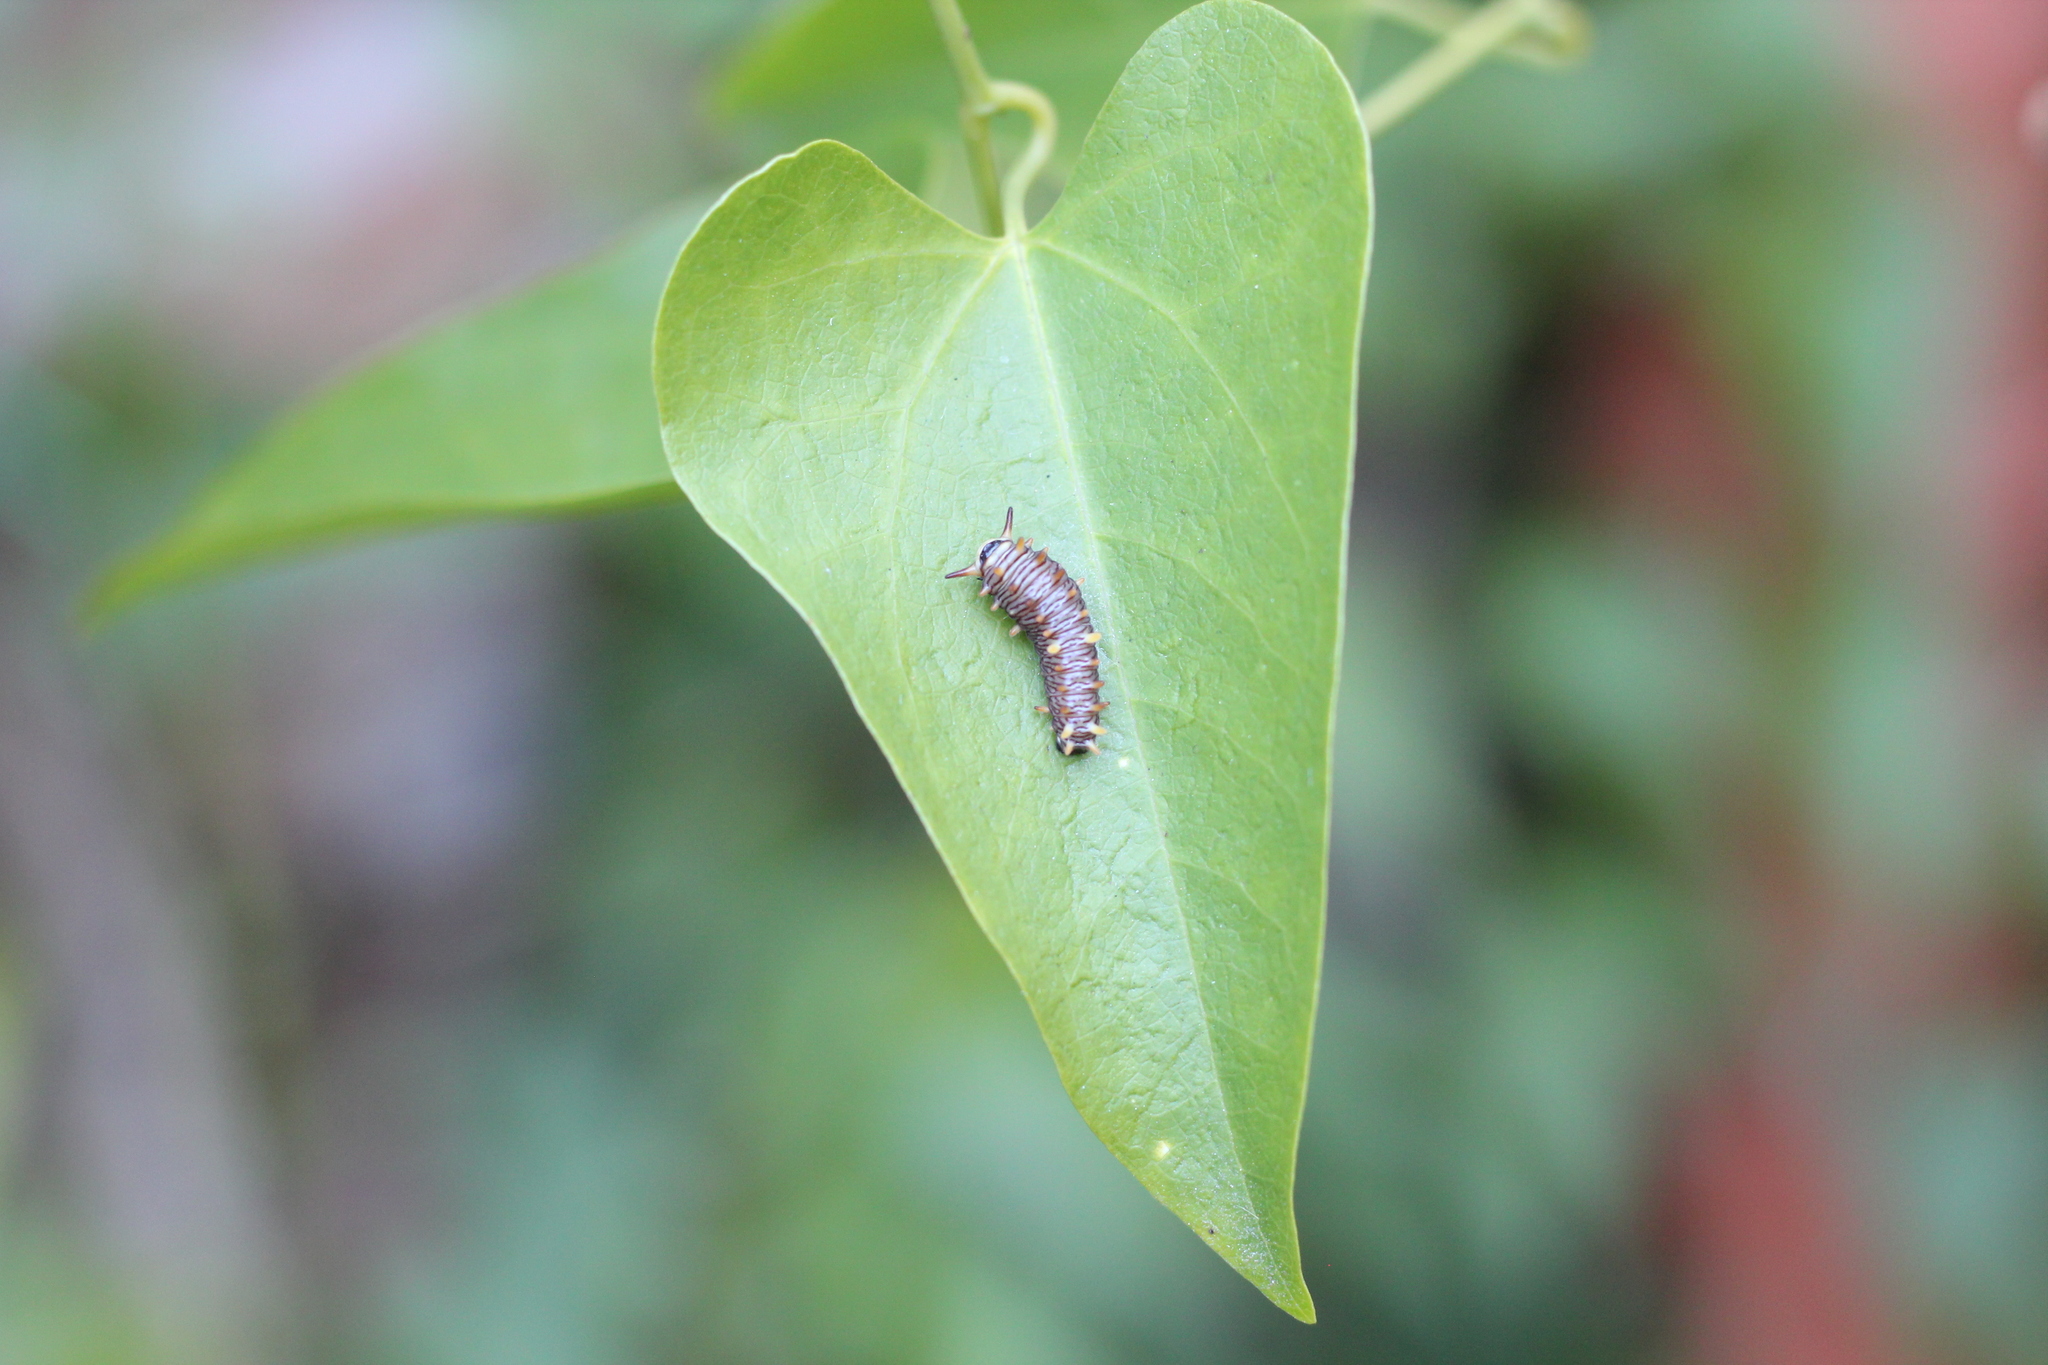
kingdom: Animalia
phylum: Arthropoda
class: Insecta
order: Lepidoptera
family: Papilionidae
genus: Battus
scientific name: Battus polydamas
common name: Polydamas swallowtail
